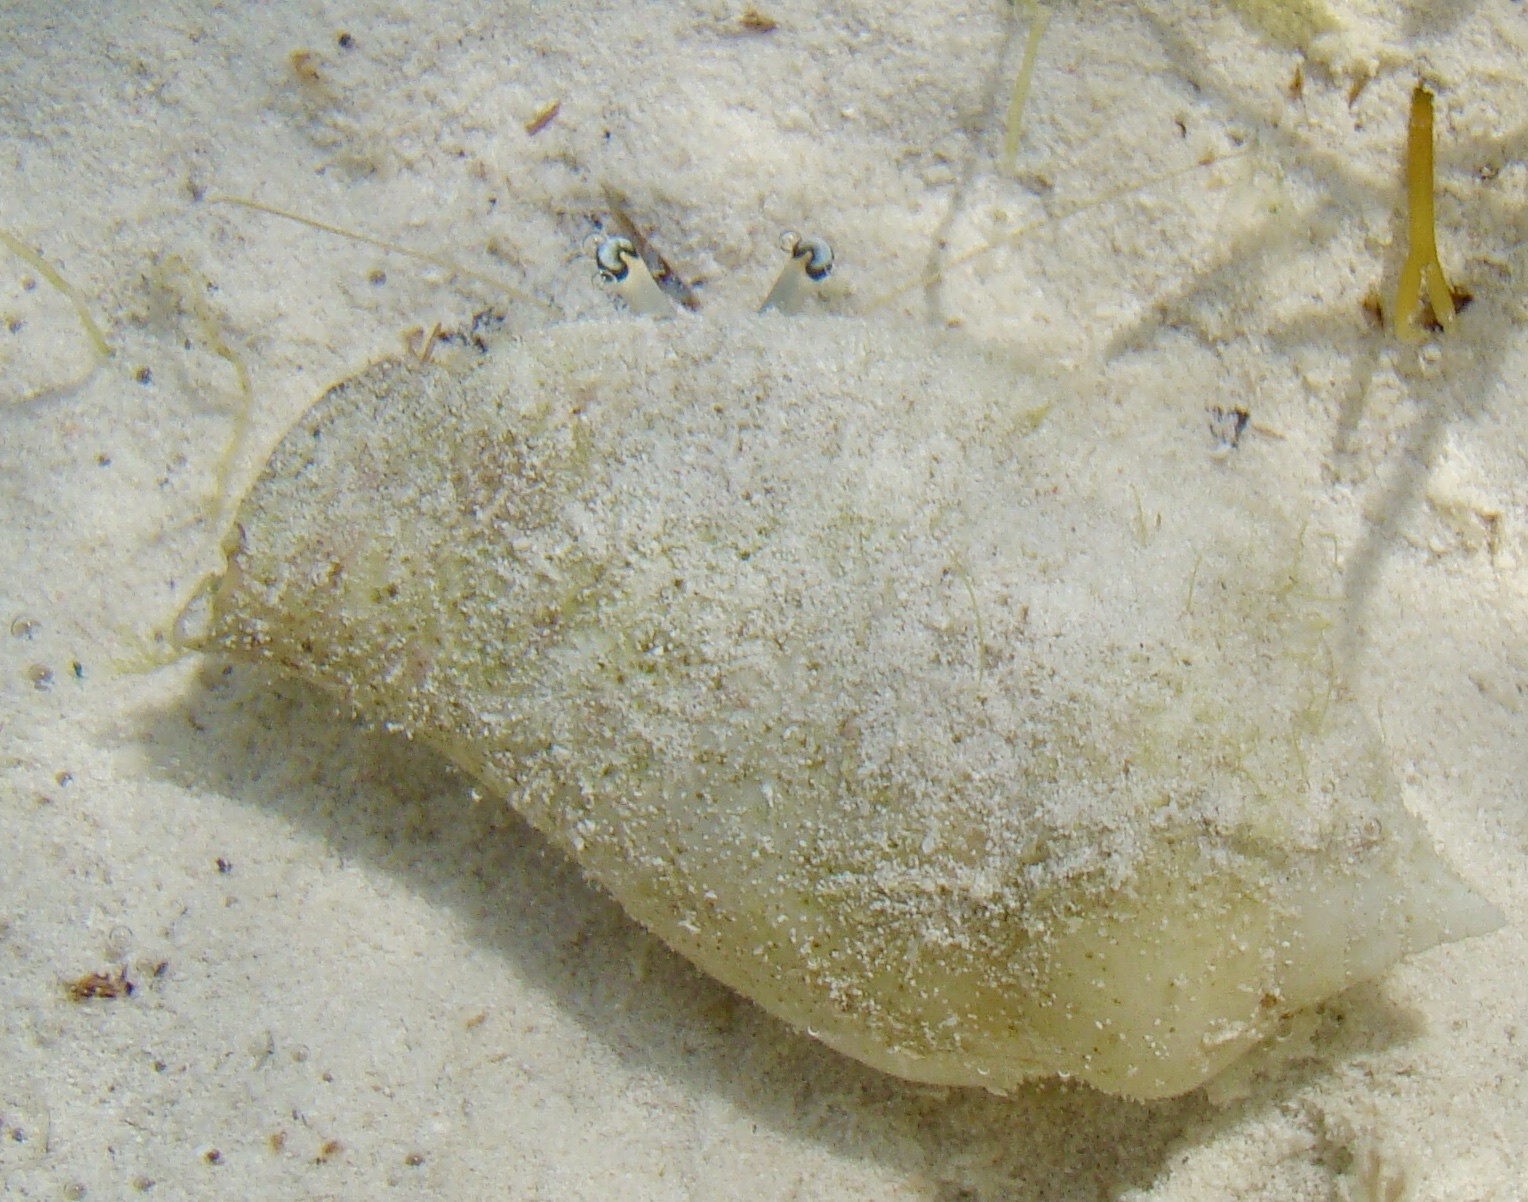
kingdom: Animalia
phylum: Arthropoda
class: Malacostraca
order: Decapoda
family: Diogenidae
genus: Dardanus
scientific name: Dardanus scutellatus
